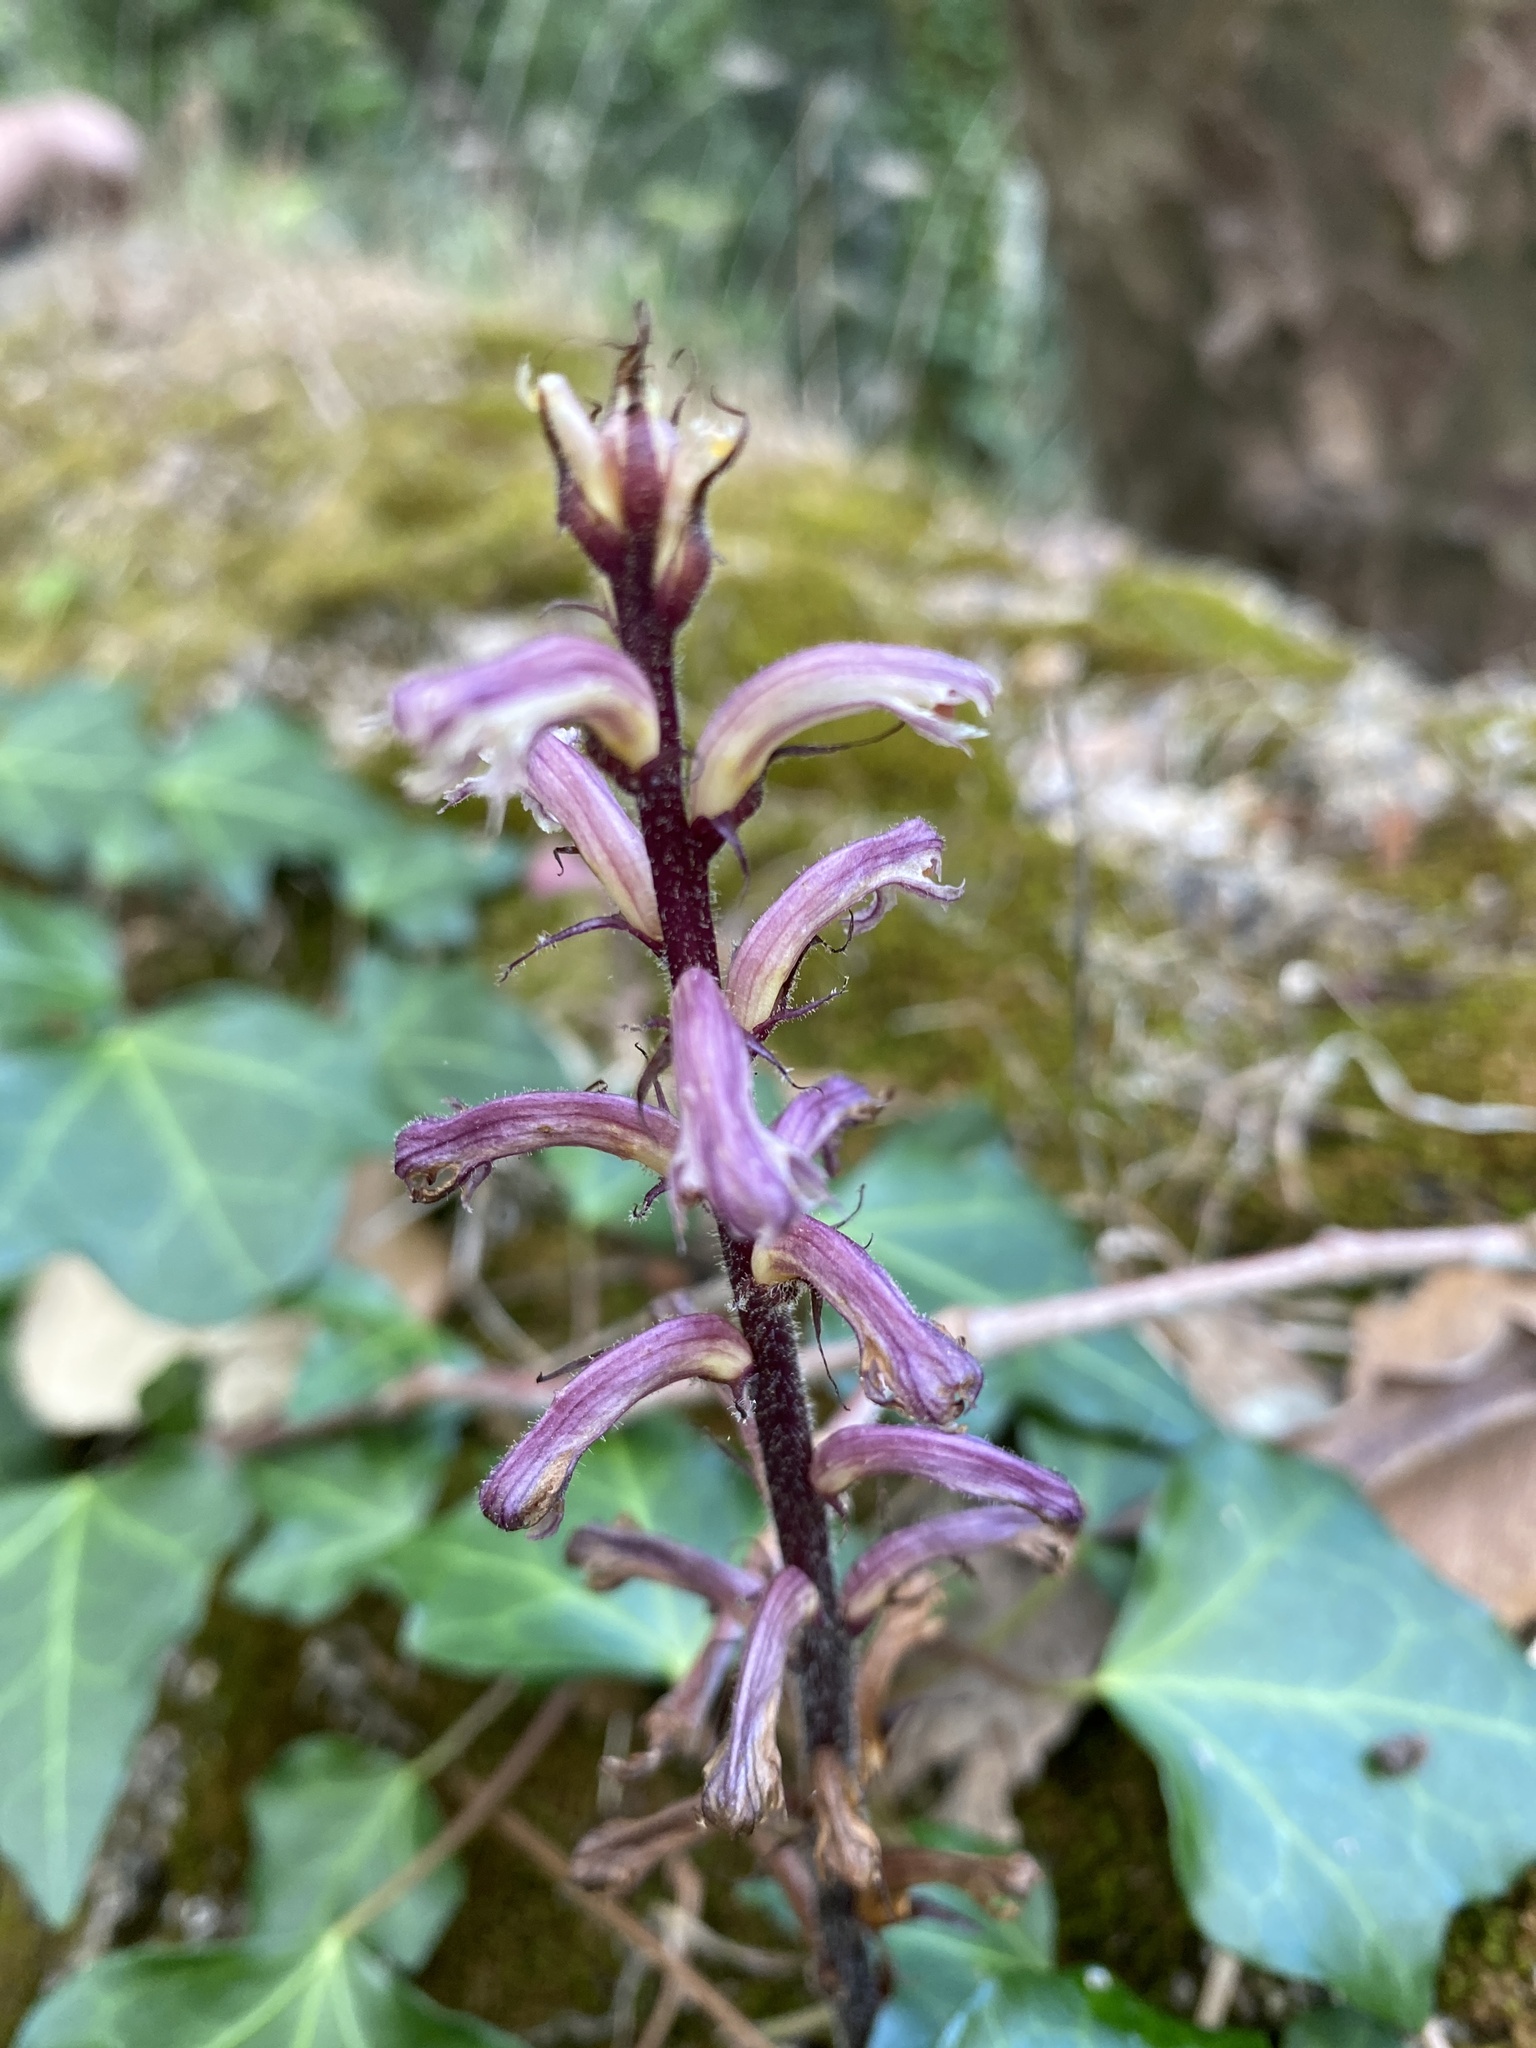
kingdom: Plantae
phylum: Tracheophyta
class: Magnoliopsida
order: Lamiales
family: Orobanchaceae
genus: Orobanche
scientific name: Orobanche hederae
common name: Ivy broomrape
